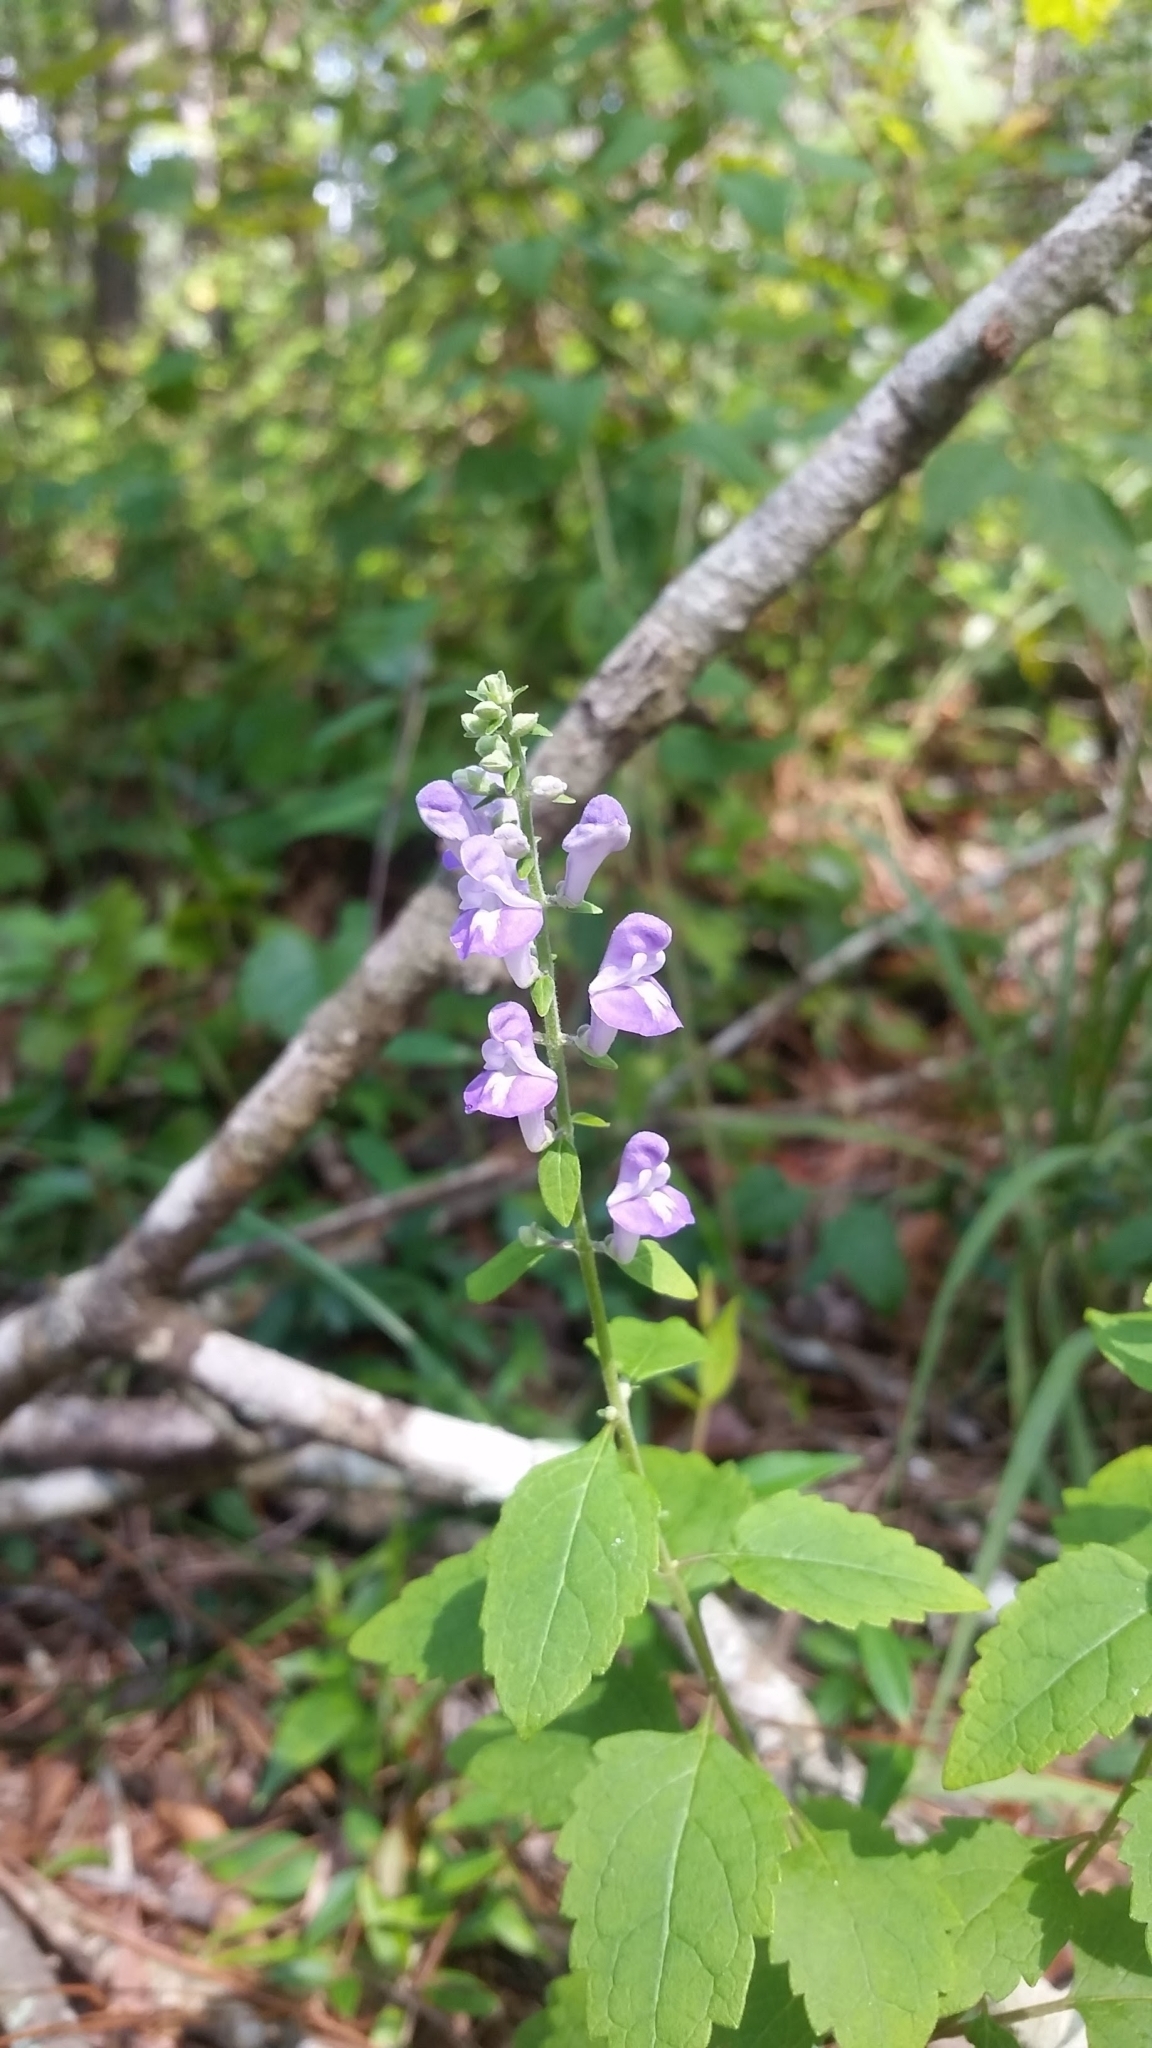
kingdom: Plantae
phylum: Tracheophyta
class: Magnoliopsida
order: Lamiales
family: Lamiaceae
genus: Scutellaria
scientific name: Scutellaria elliptica
